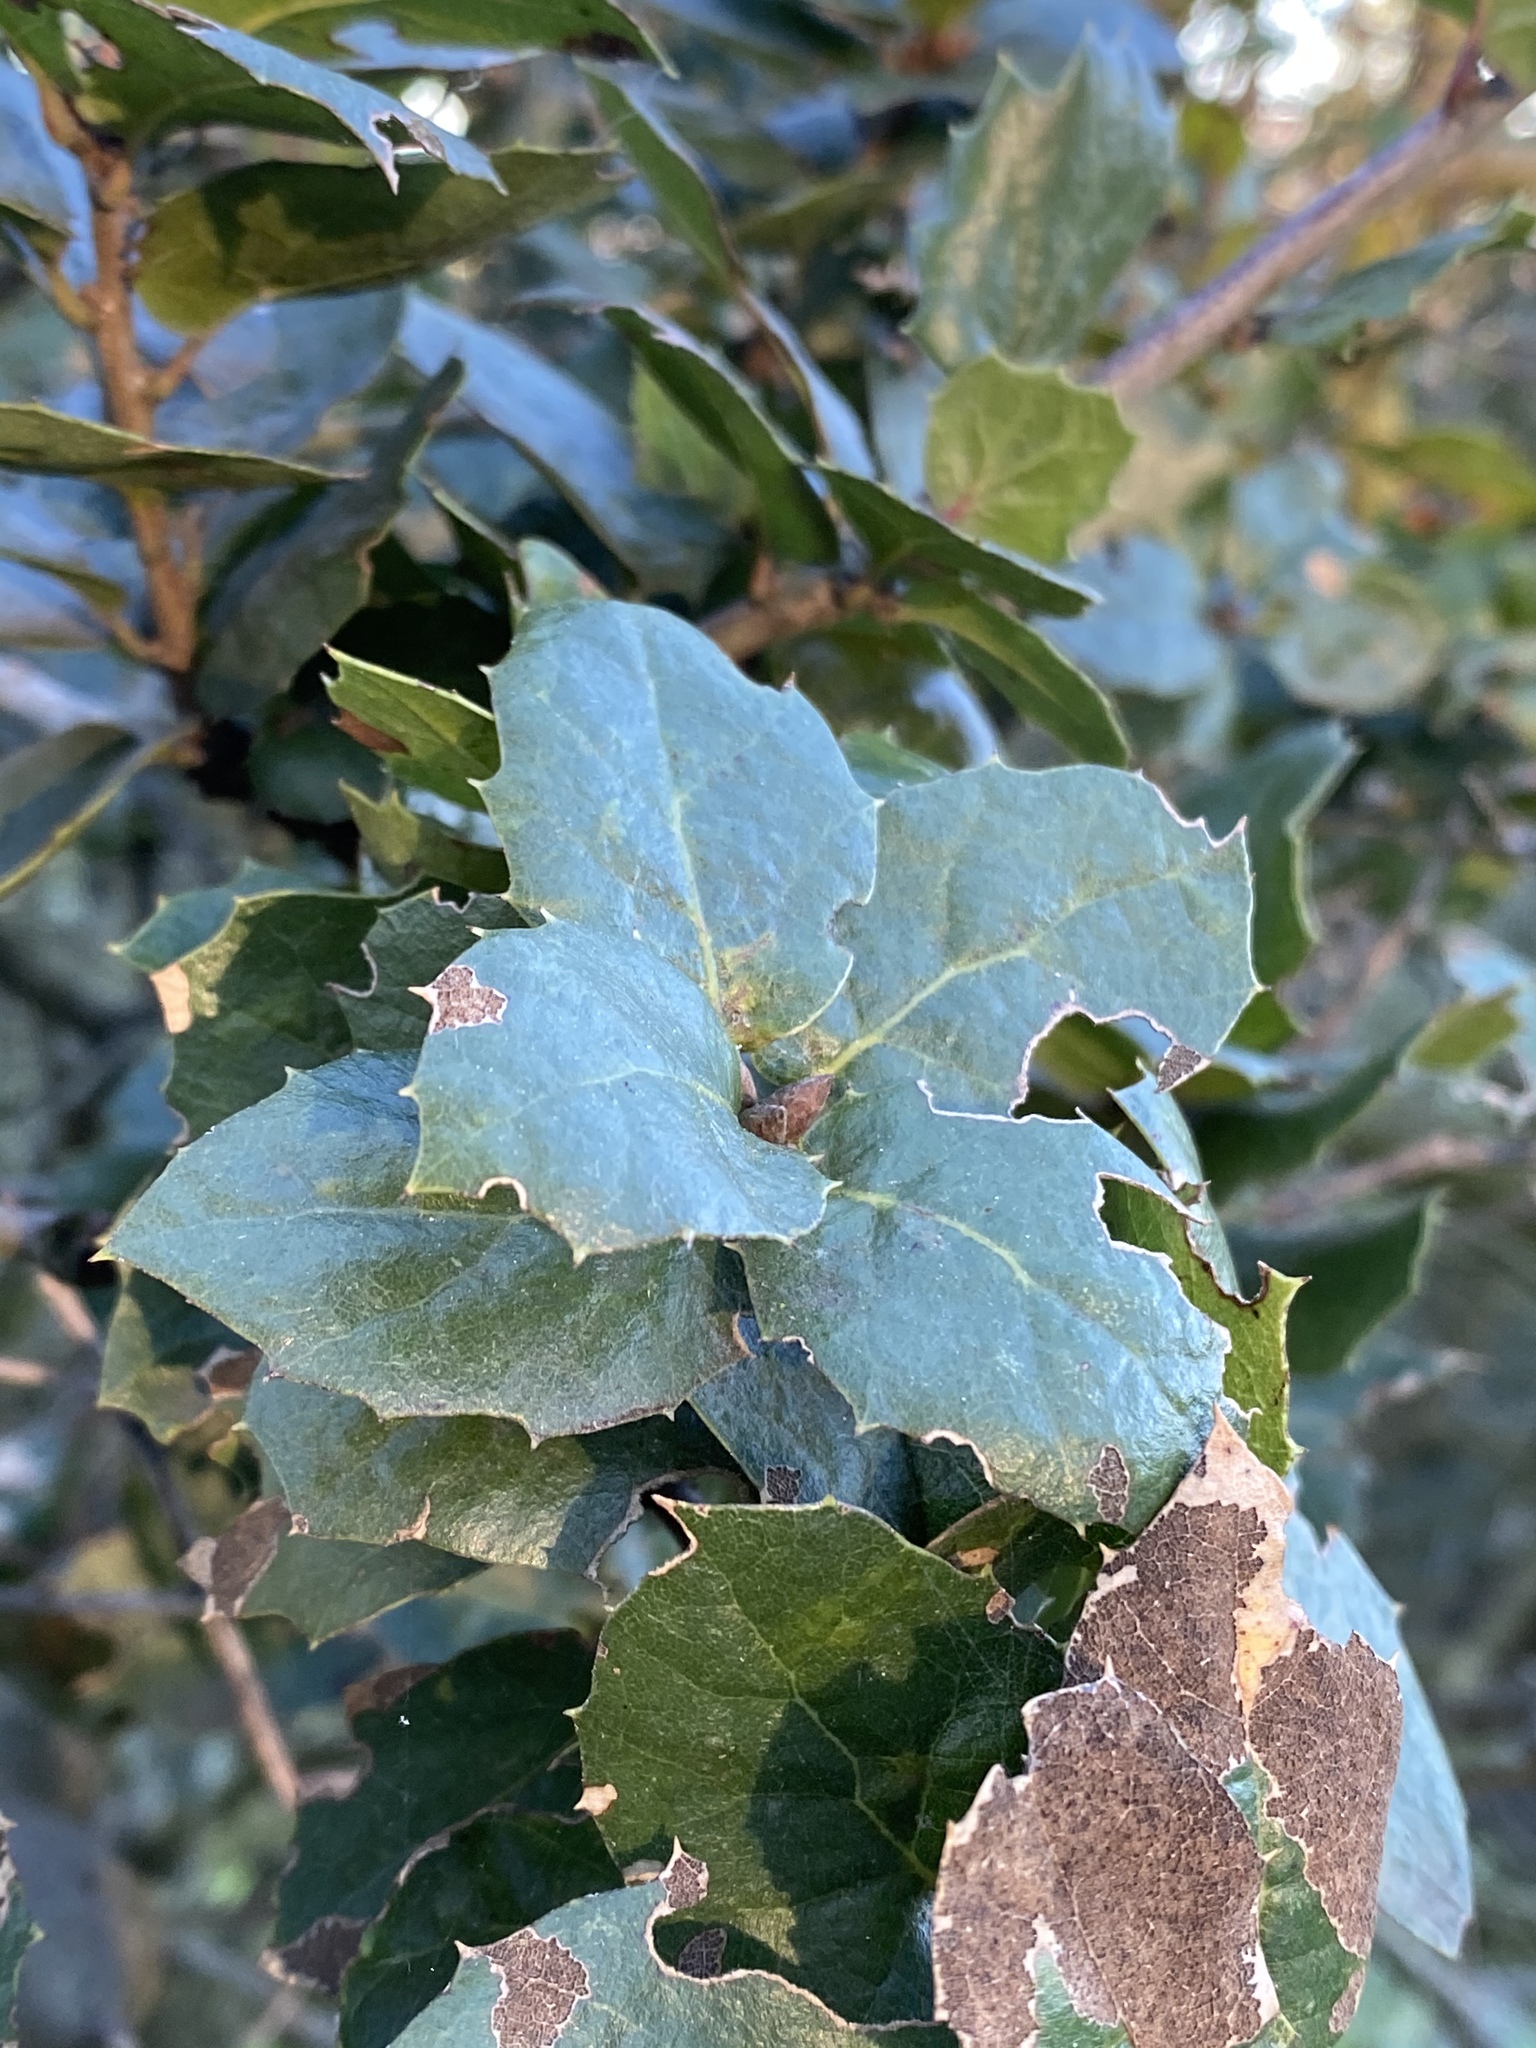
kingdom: Plantae
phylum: Tracheophyta
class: Magnoliopsida
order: Fagales
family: Fagaceae
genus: Quercus
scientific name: Quercus agrifolia
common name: California live oak
